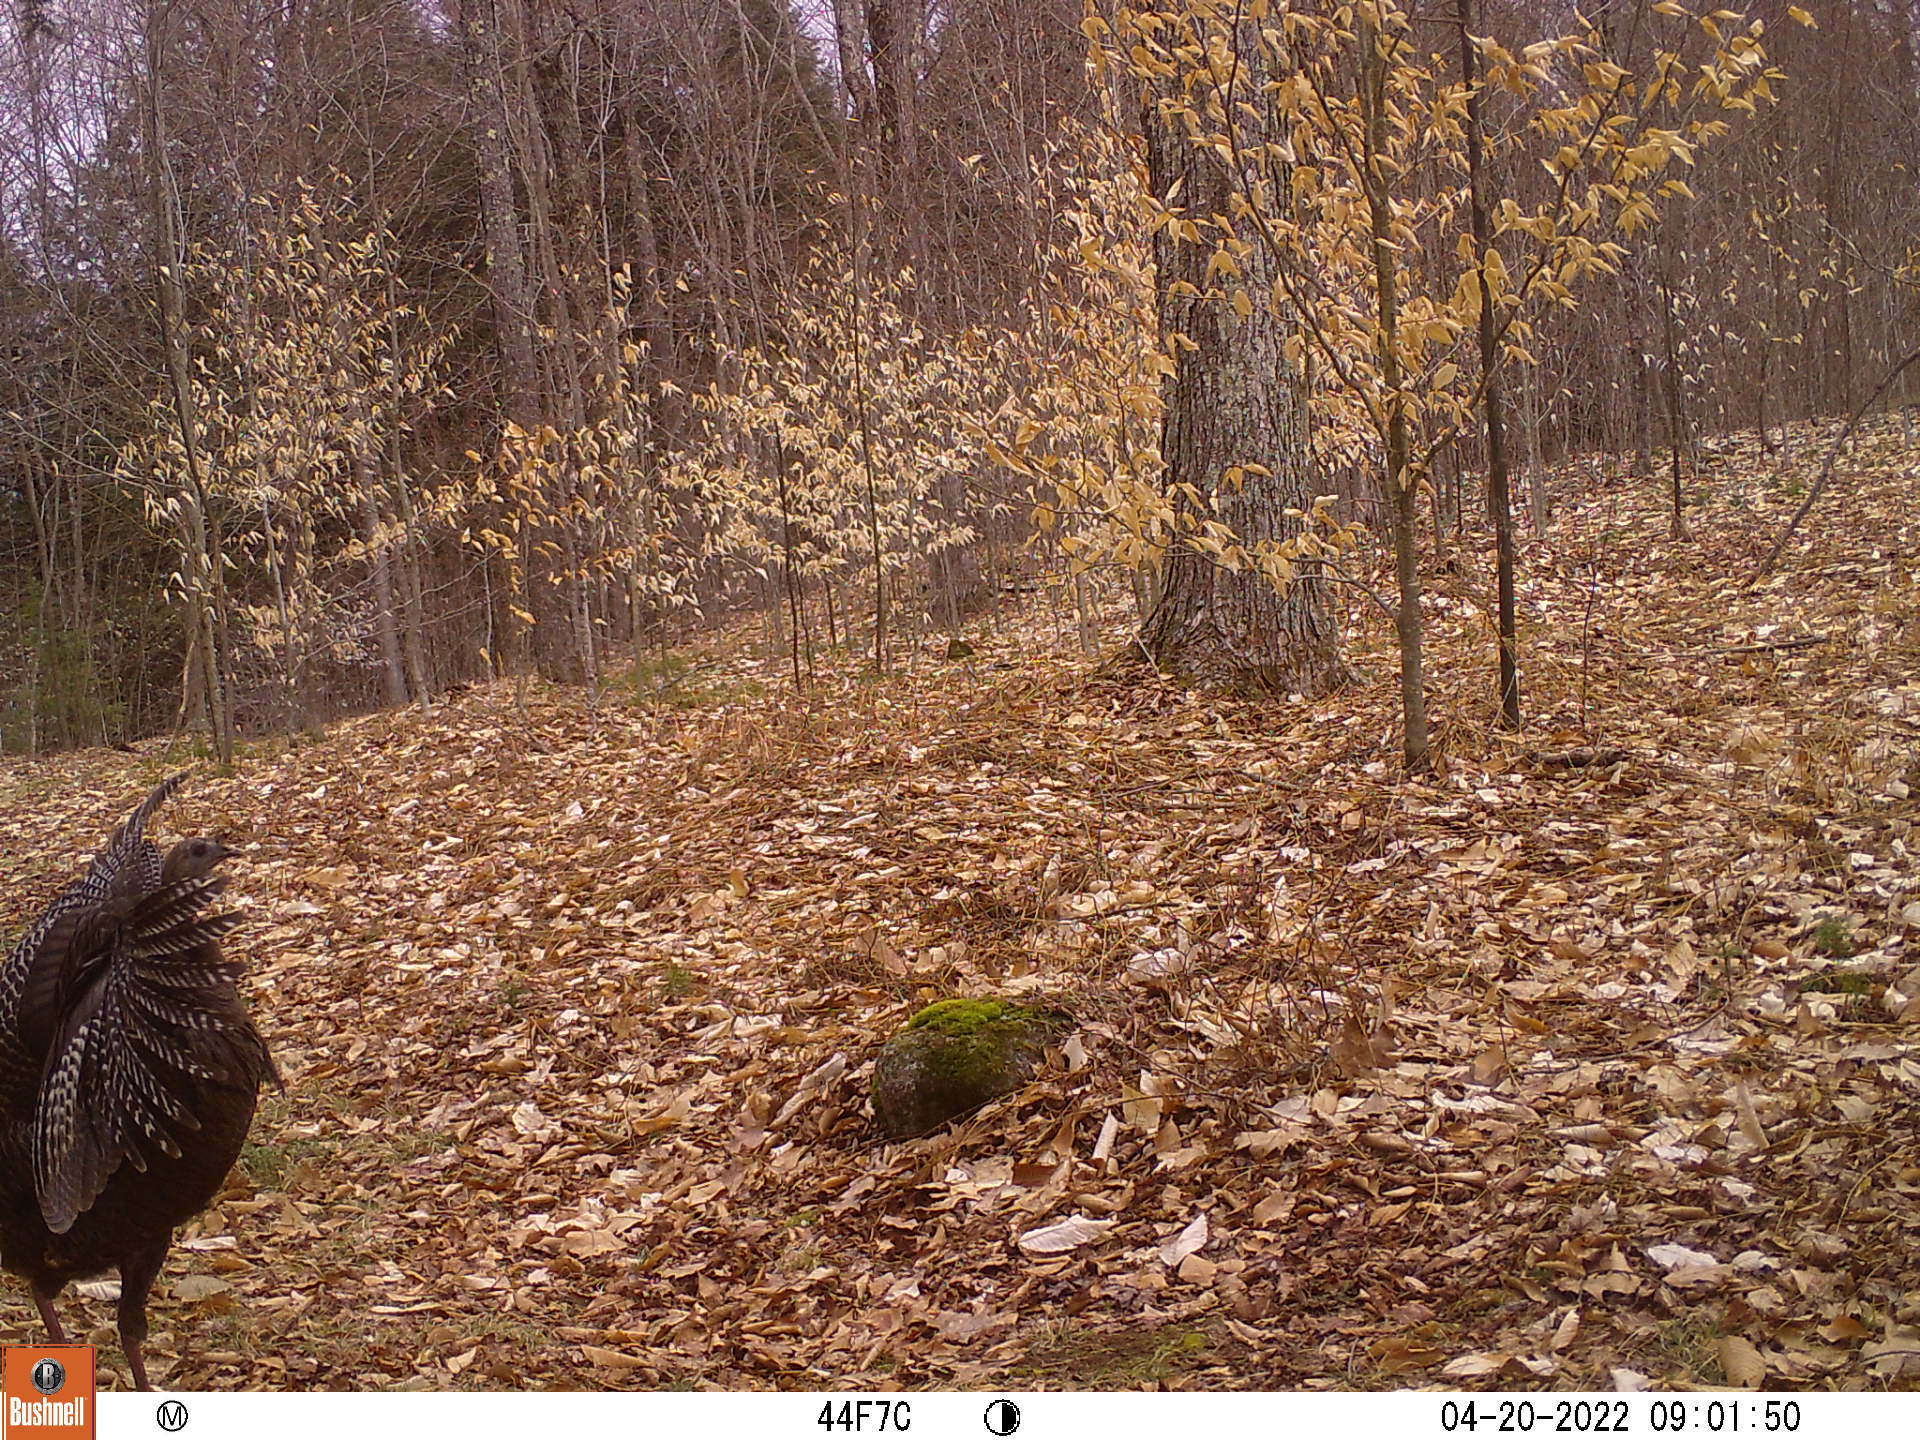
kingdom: Animalia
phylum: Chordata
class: Aves
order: Galliformes
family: Phasianidae
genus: Meleagris
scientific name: Meleagris gallopavo
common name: Wild turkey
